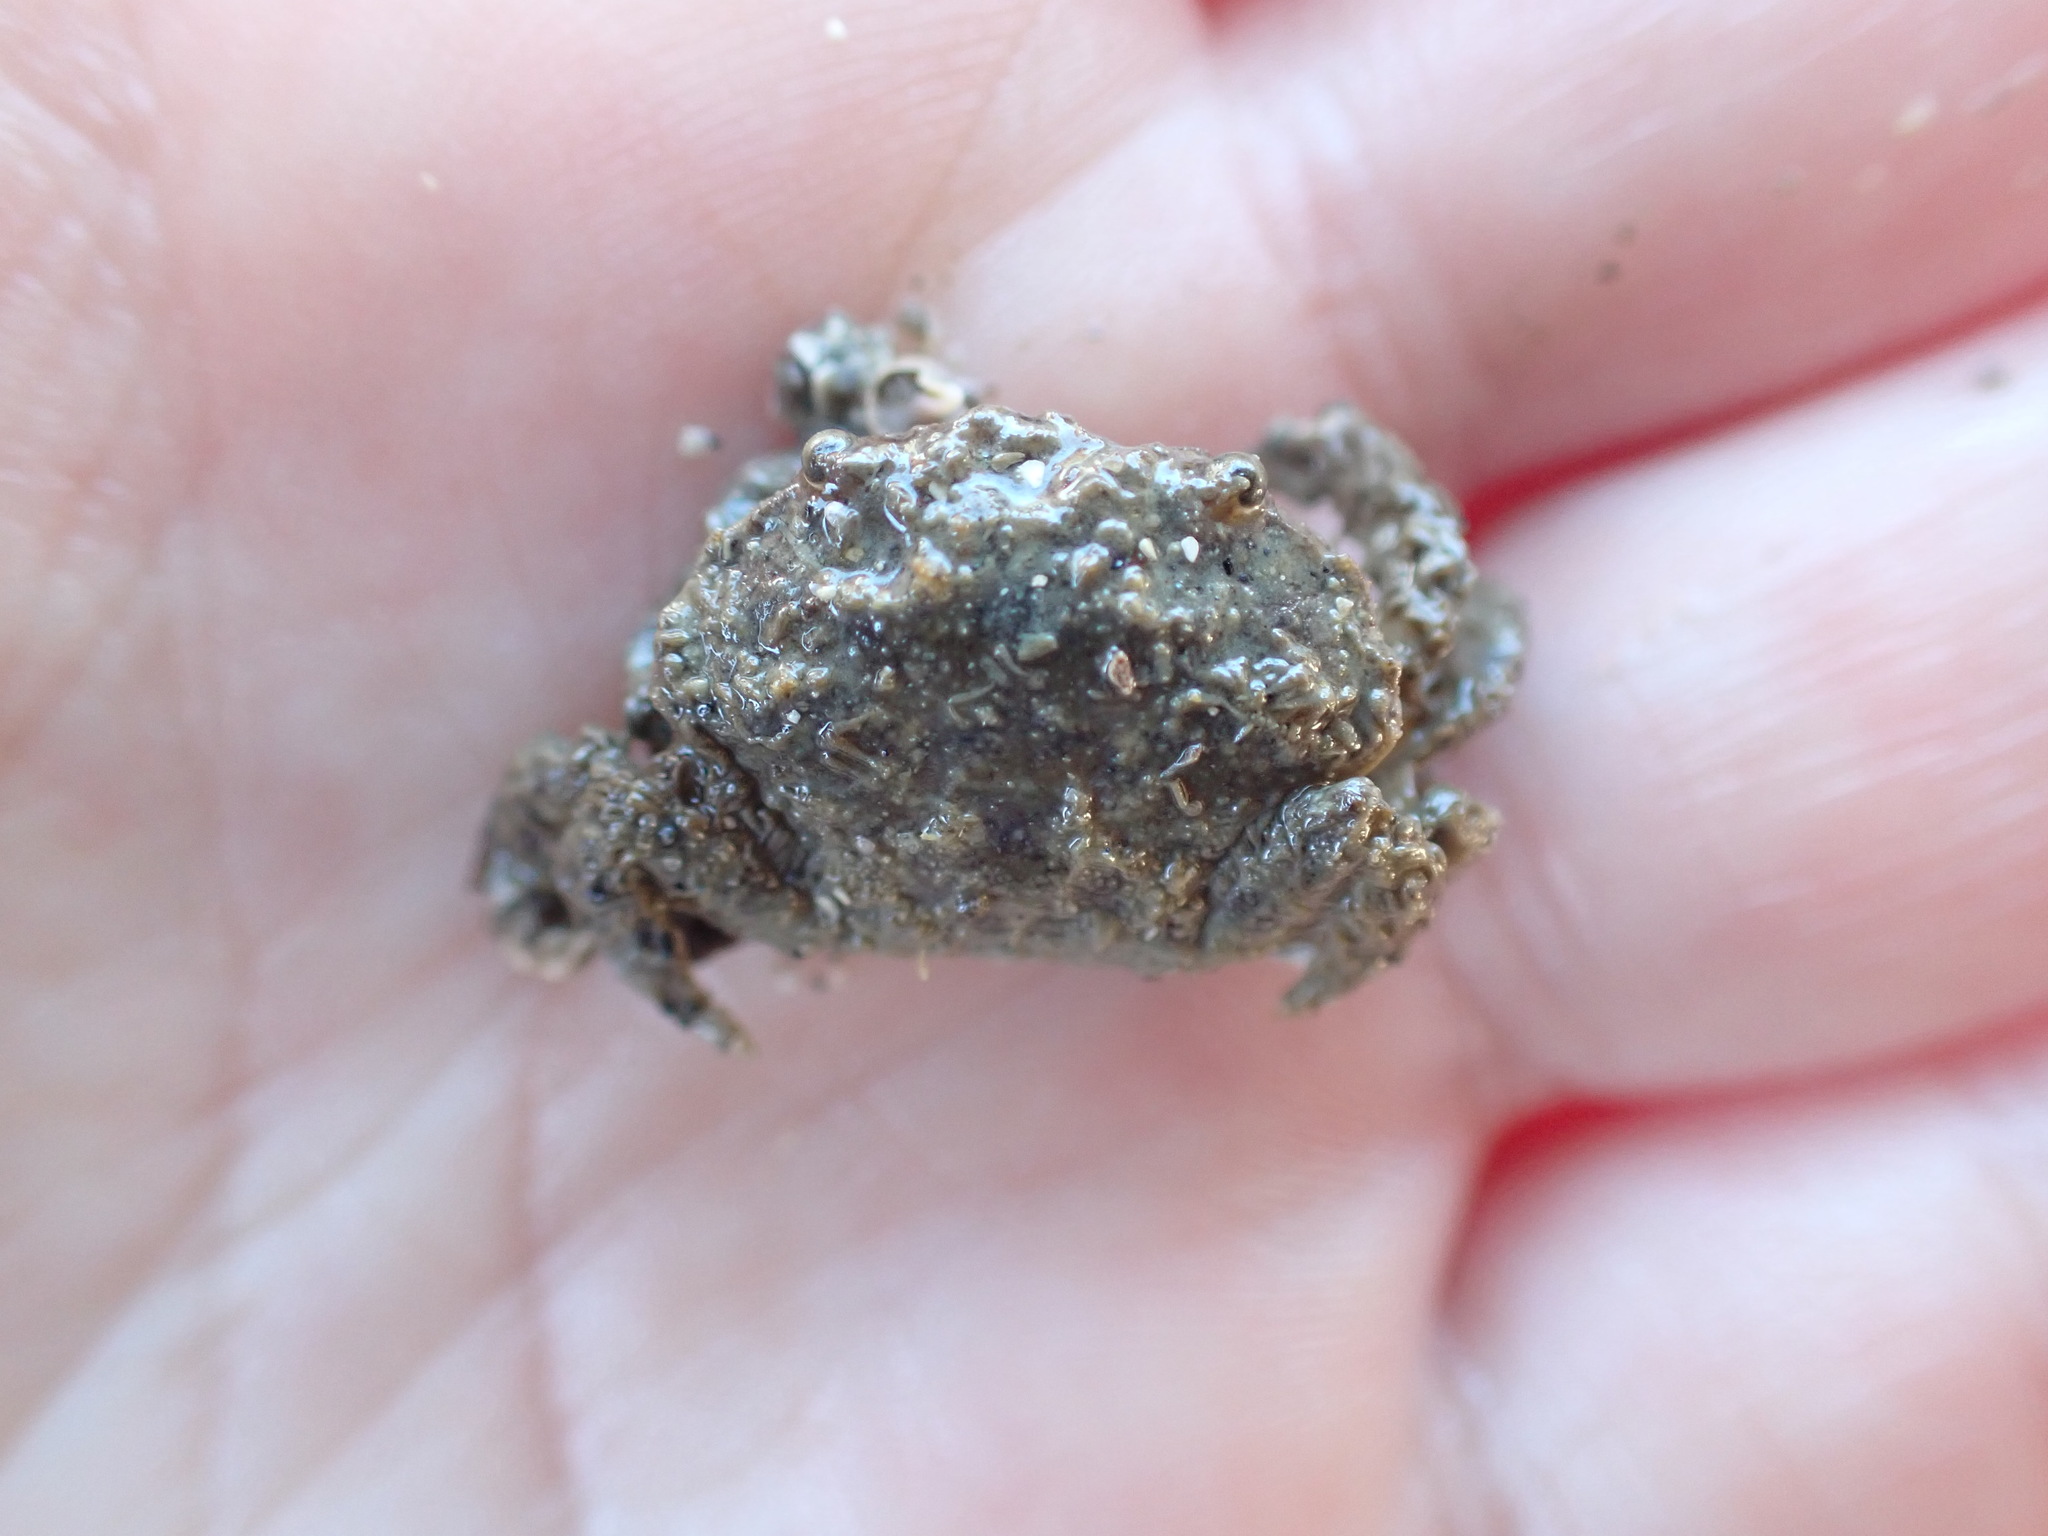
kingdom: Animalia
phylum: Arthropoda
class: Malacostraca
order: Decapoda
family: Pilumnidae
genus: Pilumnopeus
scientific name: Pilumnopeus serratifrons
